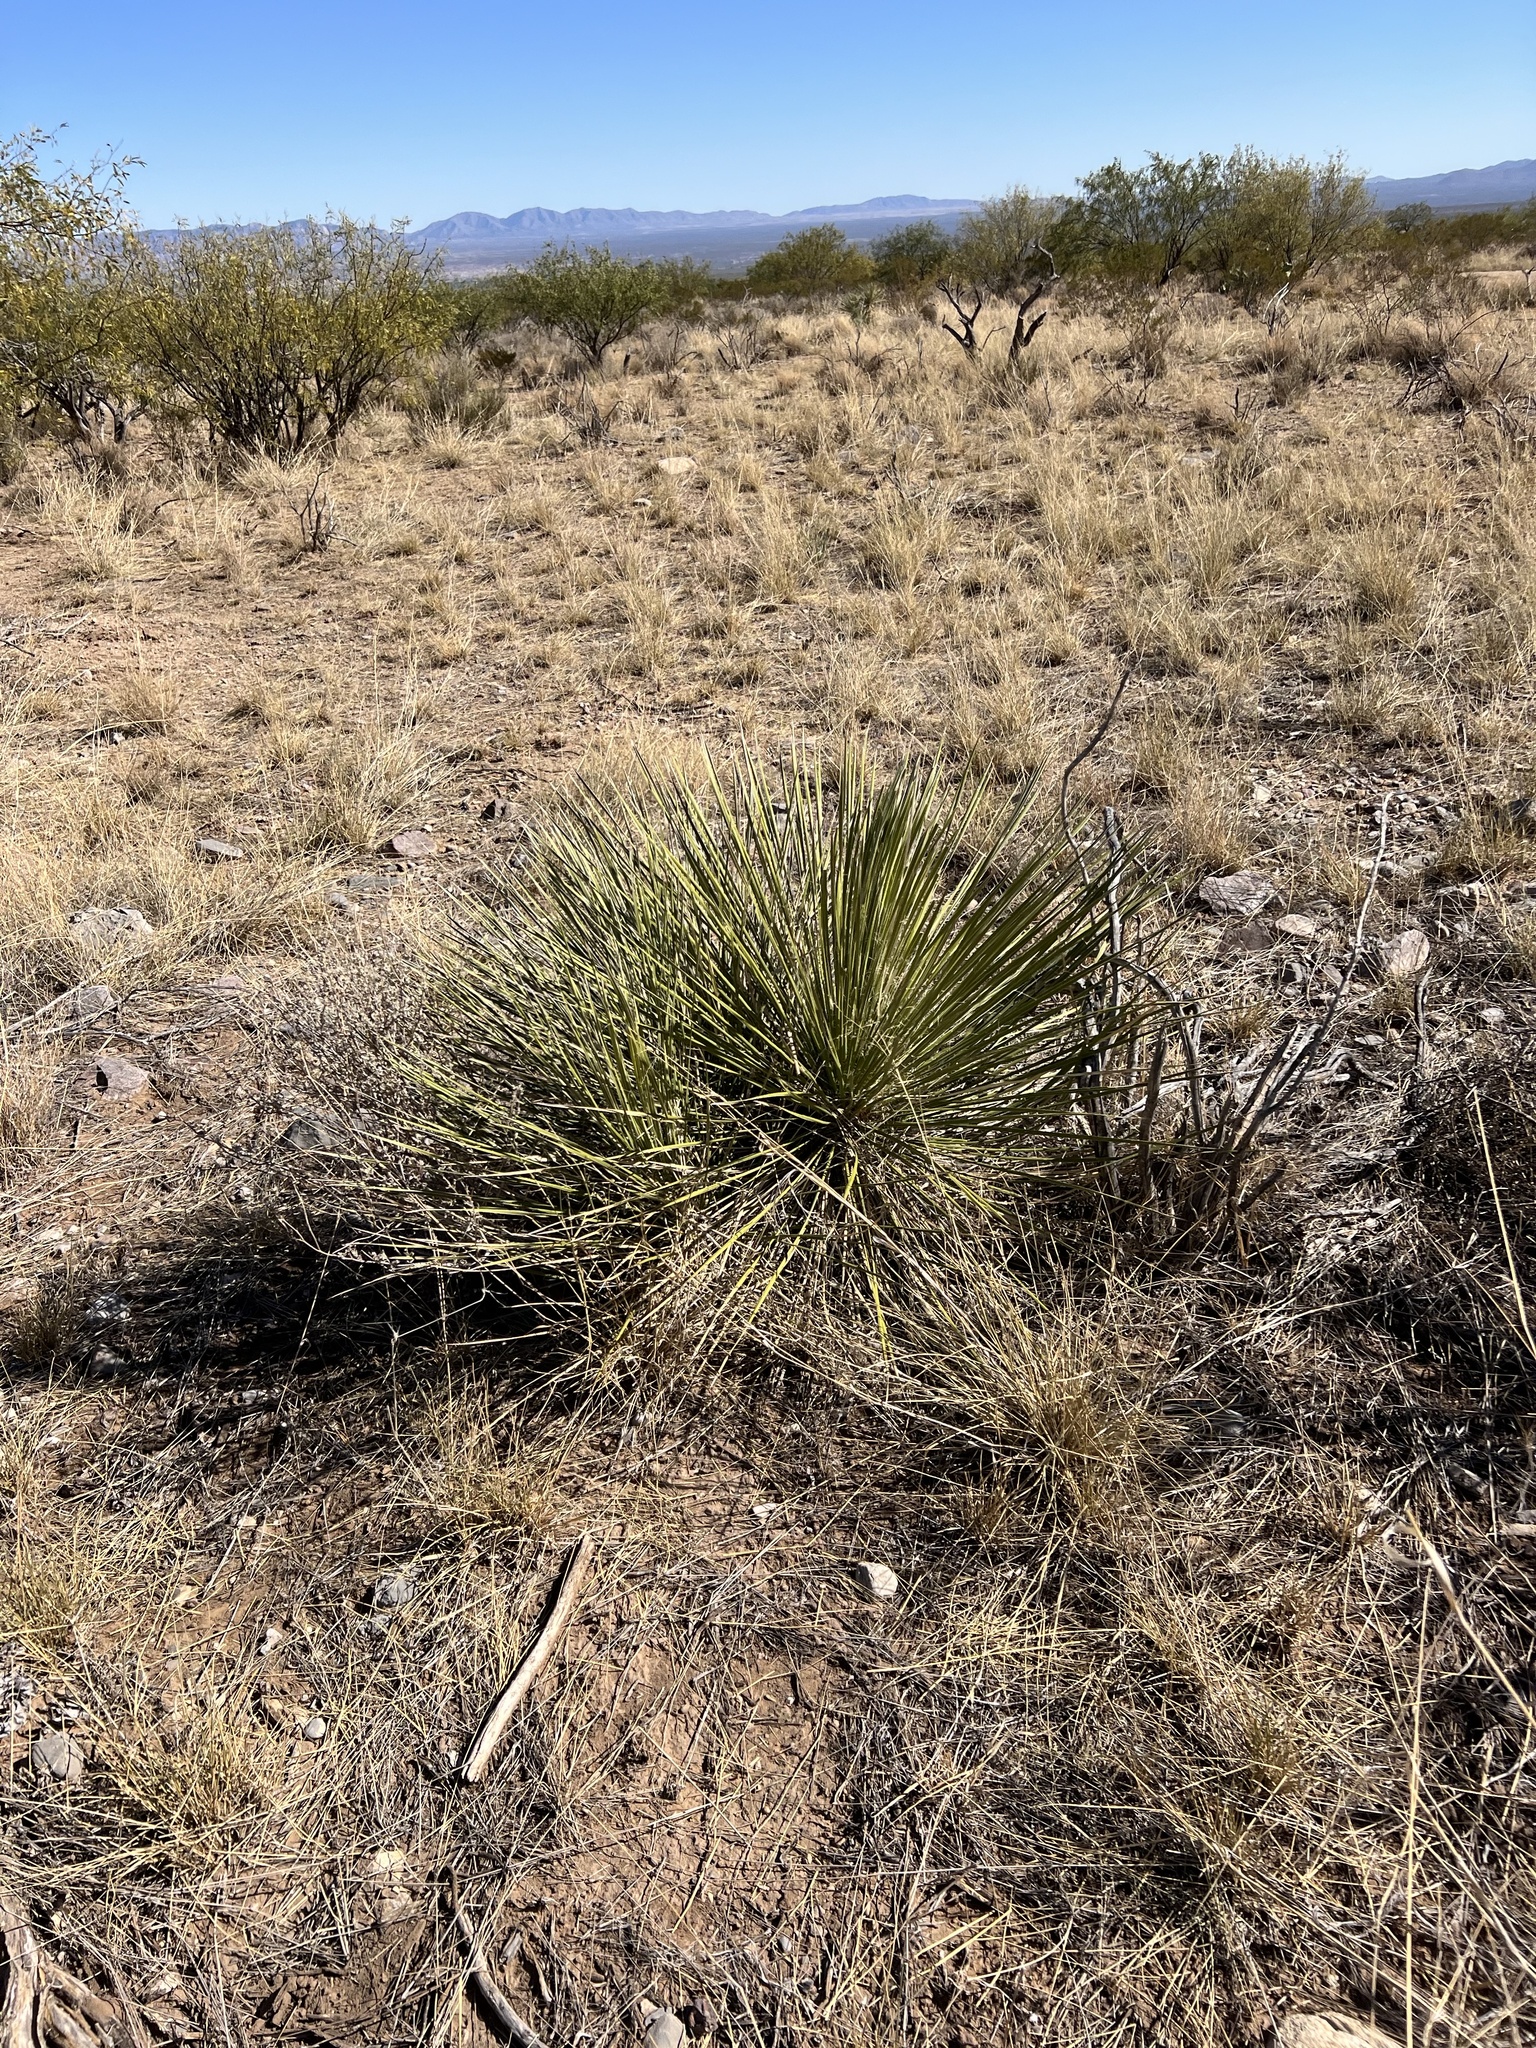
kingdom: Plantae
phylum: Tracheophyta
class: Liliopsida
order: Asparagales
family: Asparagaceae
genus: Yucca
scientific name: Yucca elata
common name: Palmella
